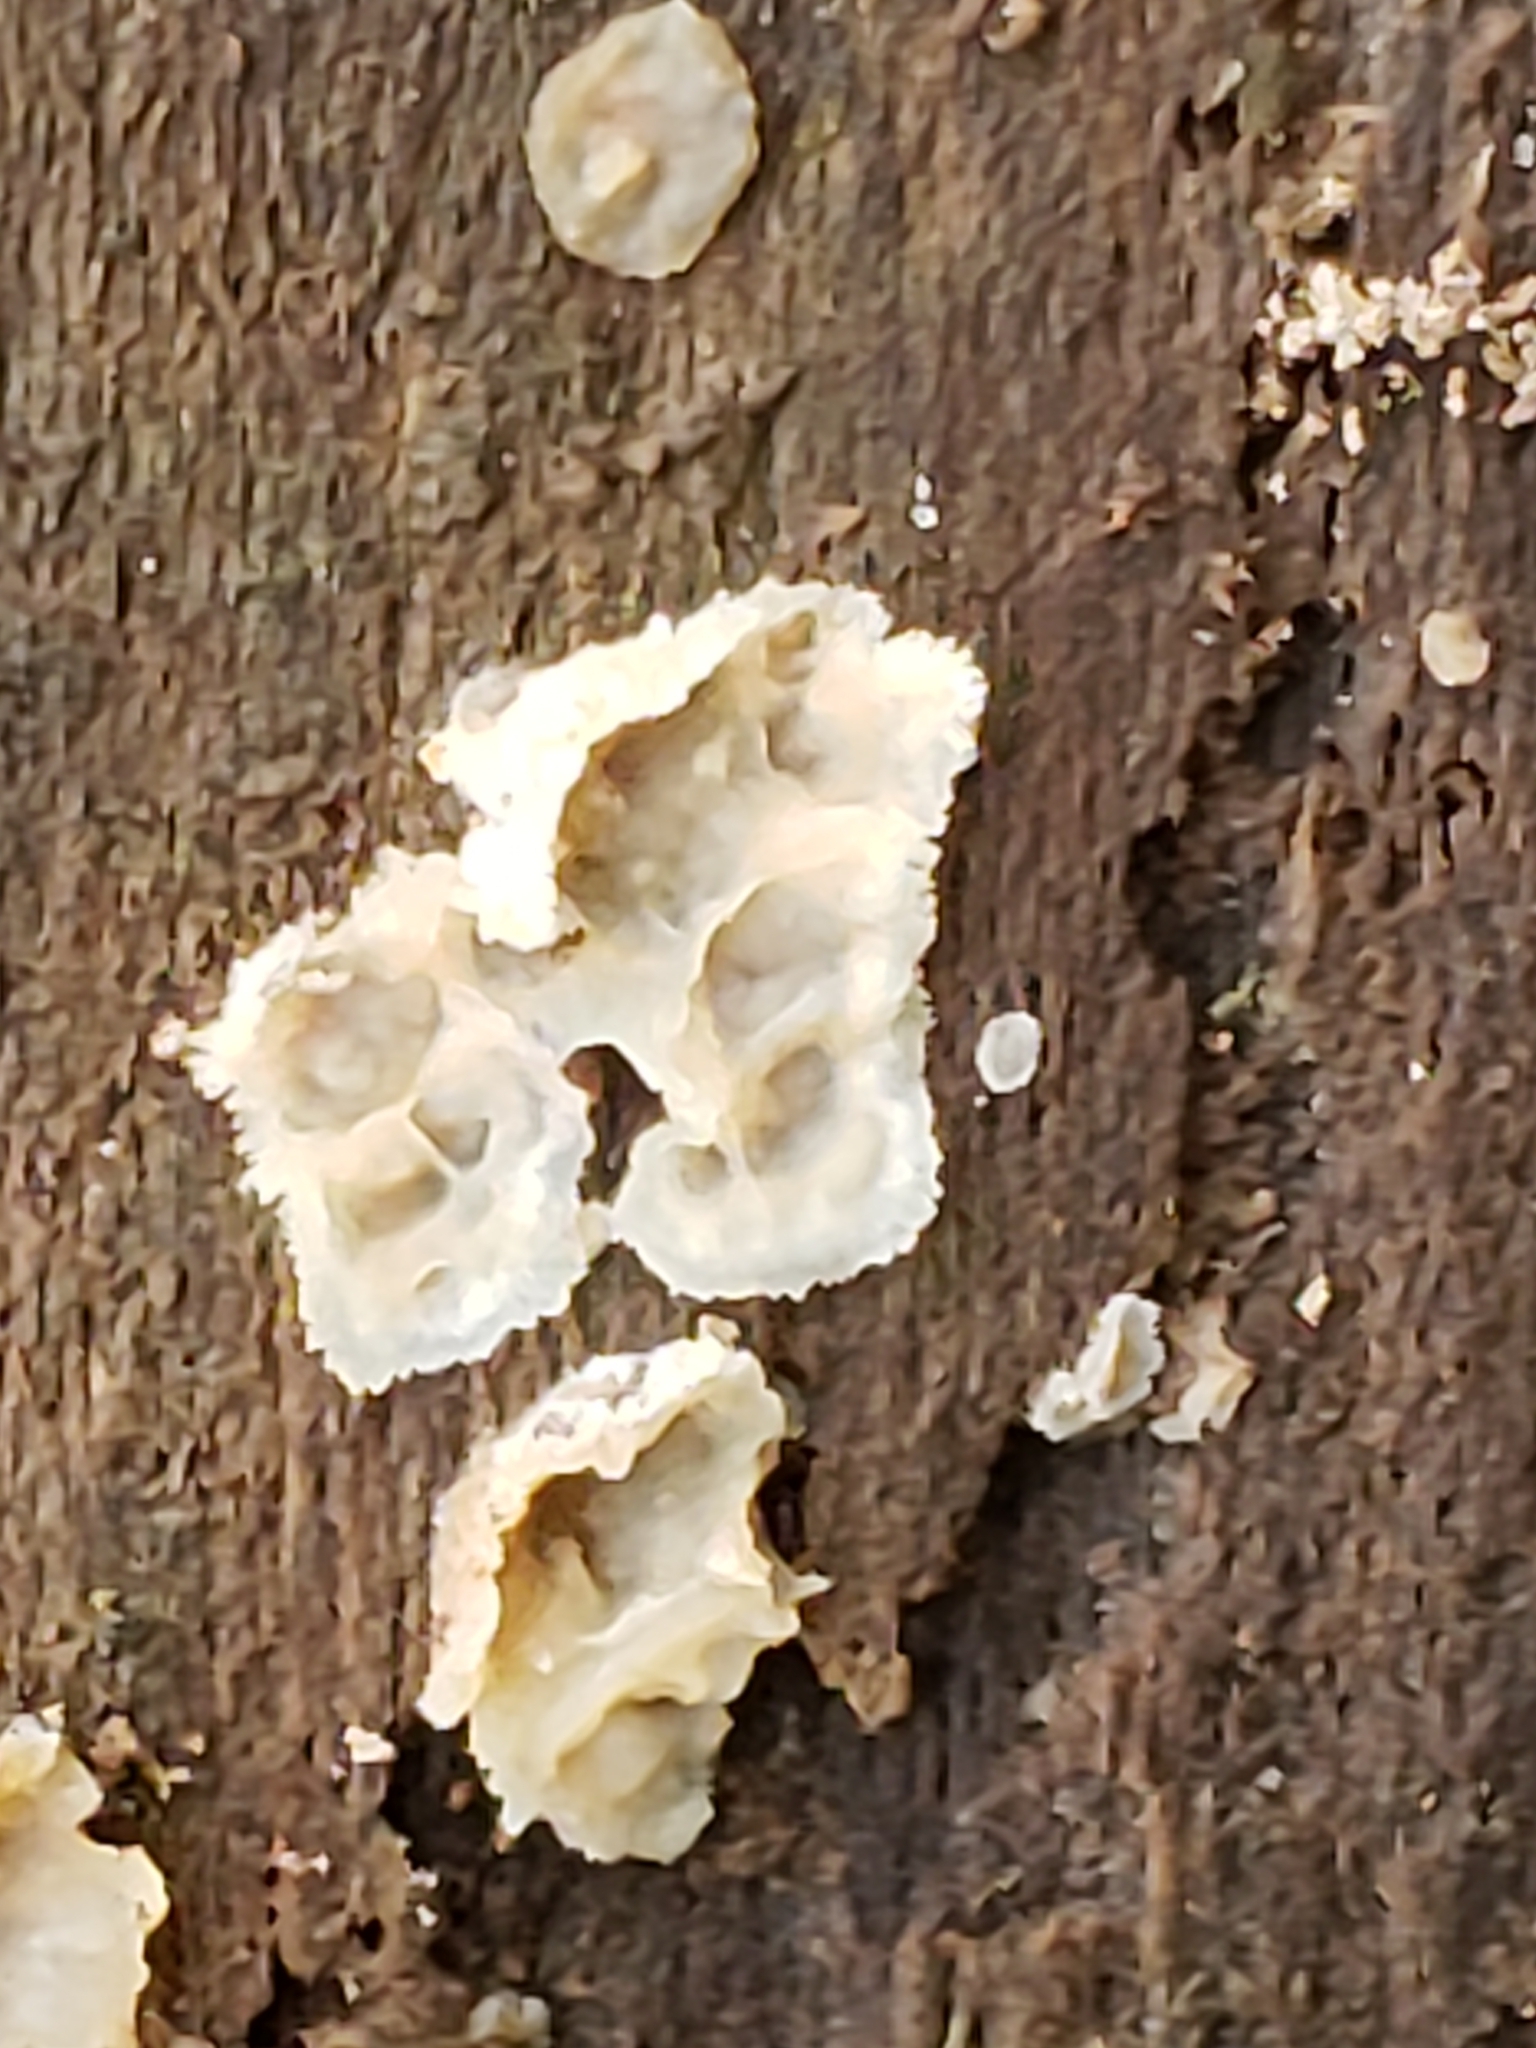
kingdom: Fungi
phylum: Basidiomycota
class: Agaricomycetes
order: Polyporales
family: Meruliaceae
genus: Phlebia
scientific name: Phlebia tremellosa
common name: Jelly rot
